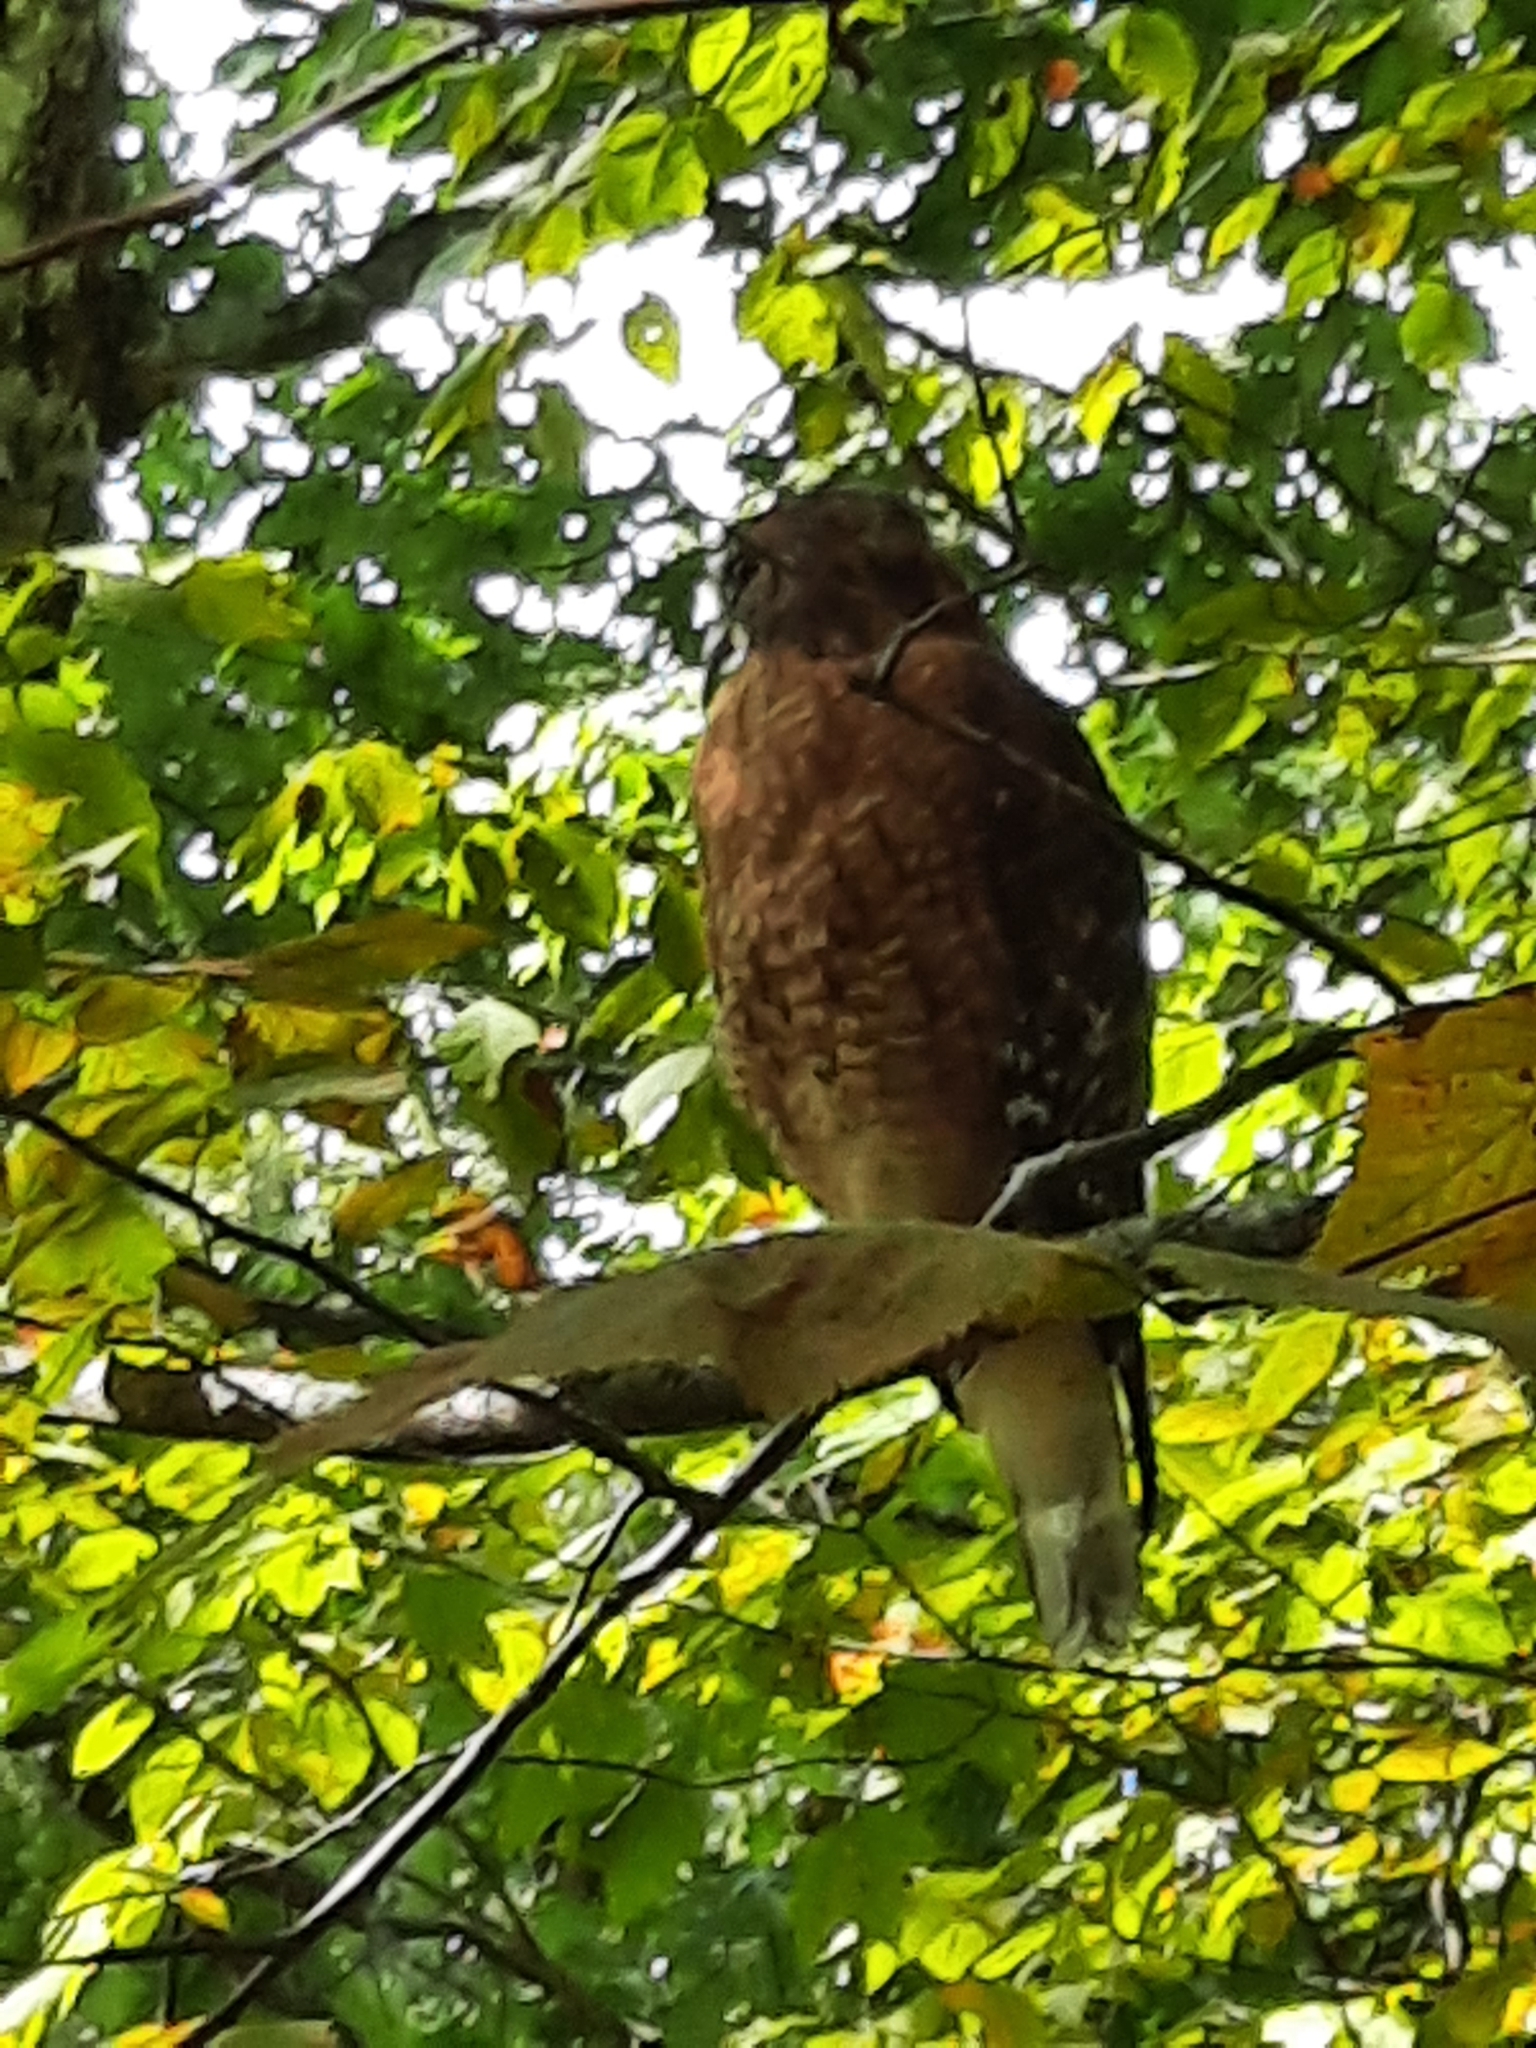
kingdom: Animalia
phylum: Chordata
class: Aves
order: Accipitriformes
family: Accipitridae
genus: Buteo
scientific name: Buteo lineatus
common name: Red-shouldered hawk
